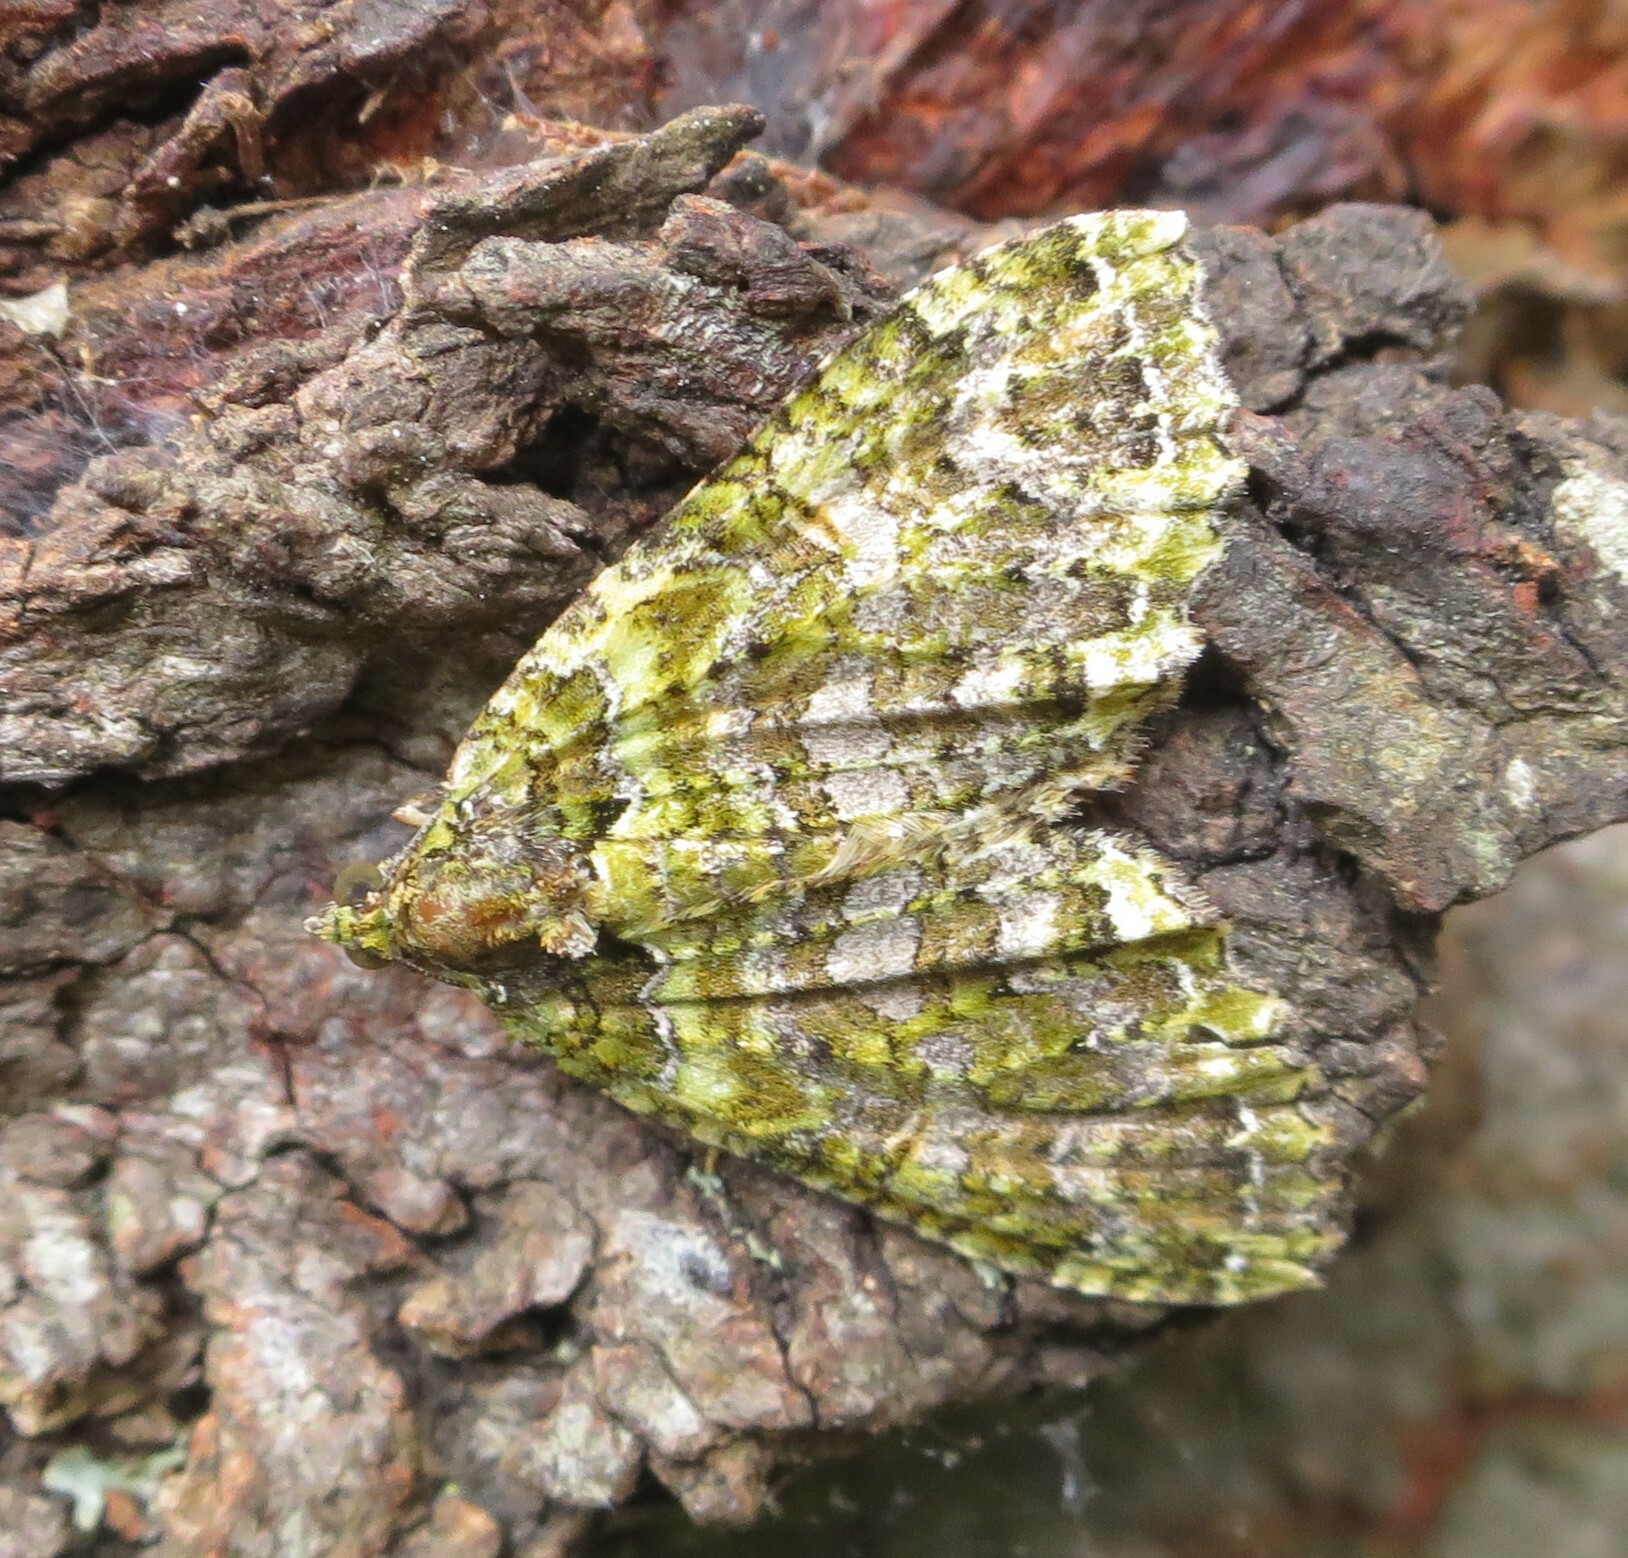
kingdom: Animalia
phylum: Arthropoda
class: Insecta
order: Lepidoptera
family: Geometridae
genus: Austrocidaria
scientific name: Austrocidaria similata
